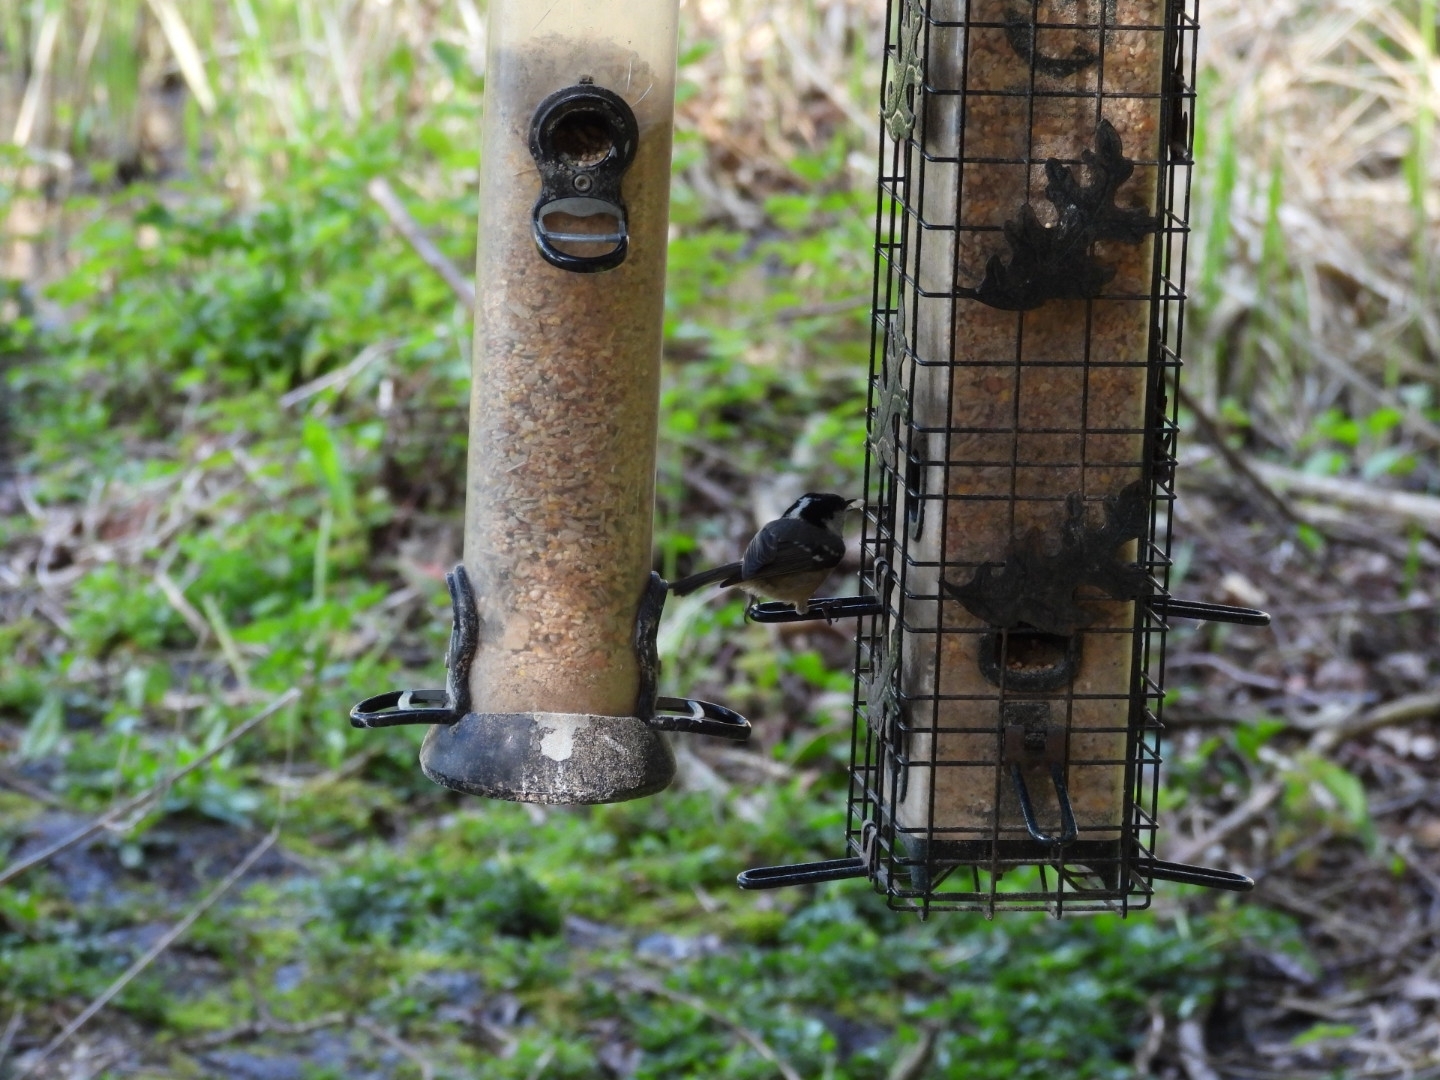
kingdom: Animalia
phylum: Chordata
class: Aves
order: Passeriformes
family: Paridae
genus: Periparus
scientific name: Periparus ater
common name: Coal tit
